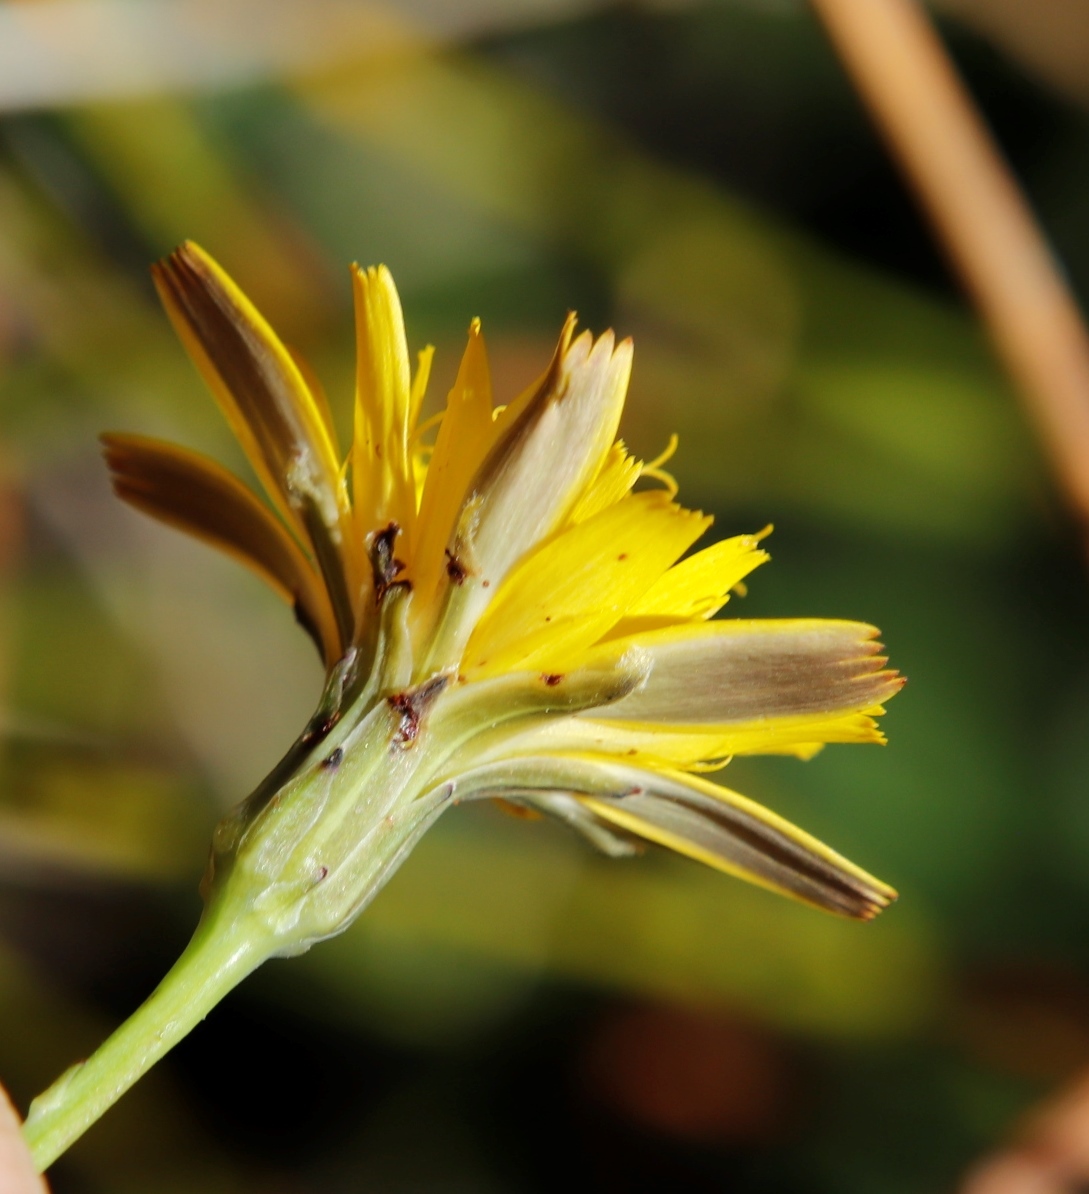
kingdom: Plantae
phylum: Tracheophyta
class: Magnoliopsida
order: Asterales
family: Asteraceae
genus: Hypochaeris
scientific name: Hypochaeris radicata
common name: Flatweed
